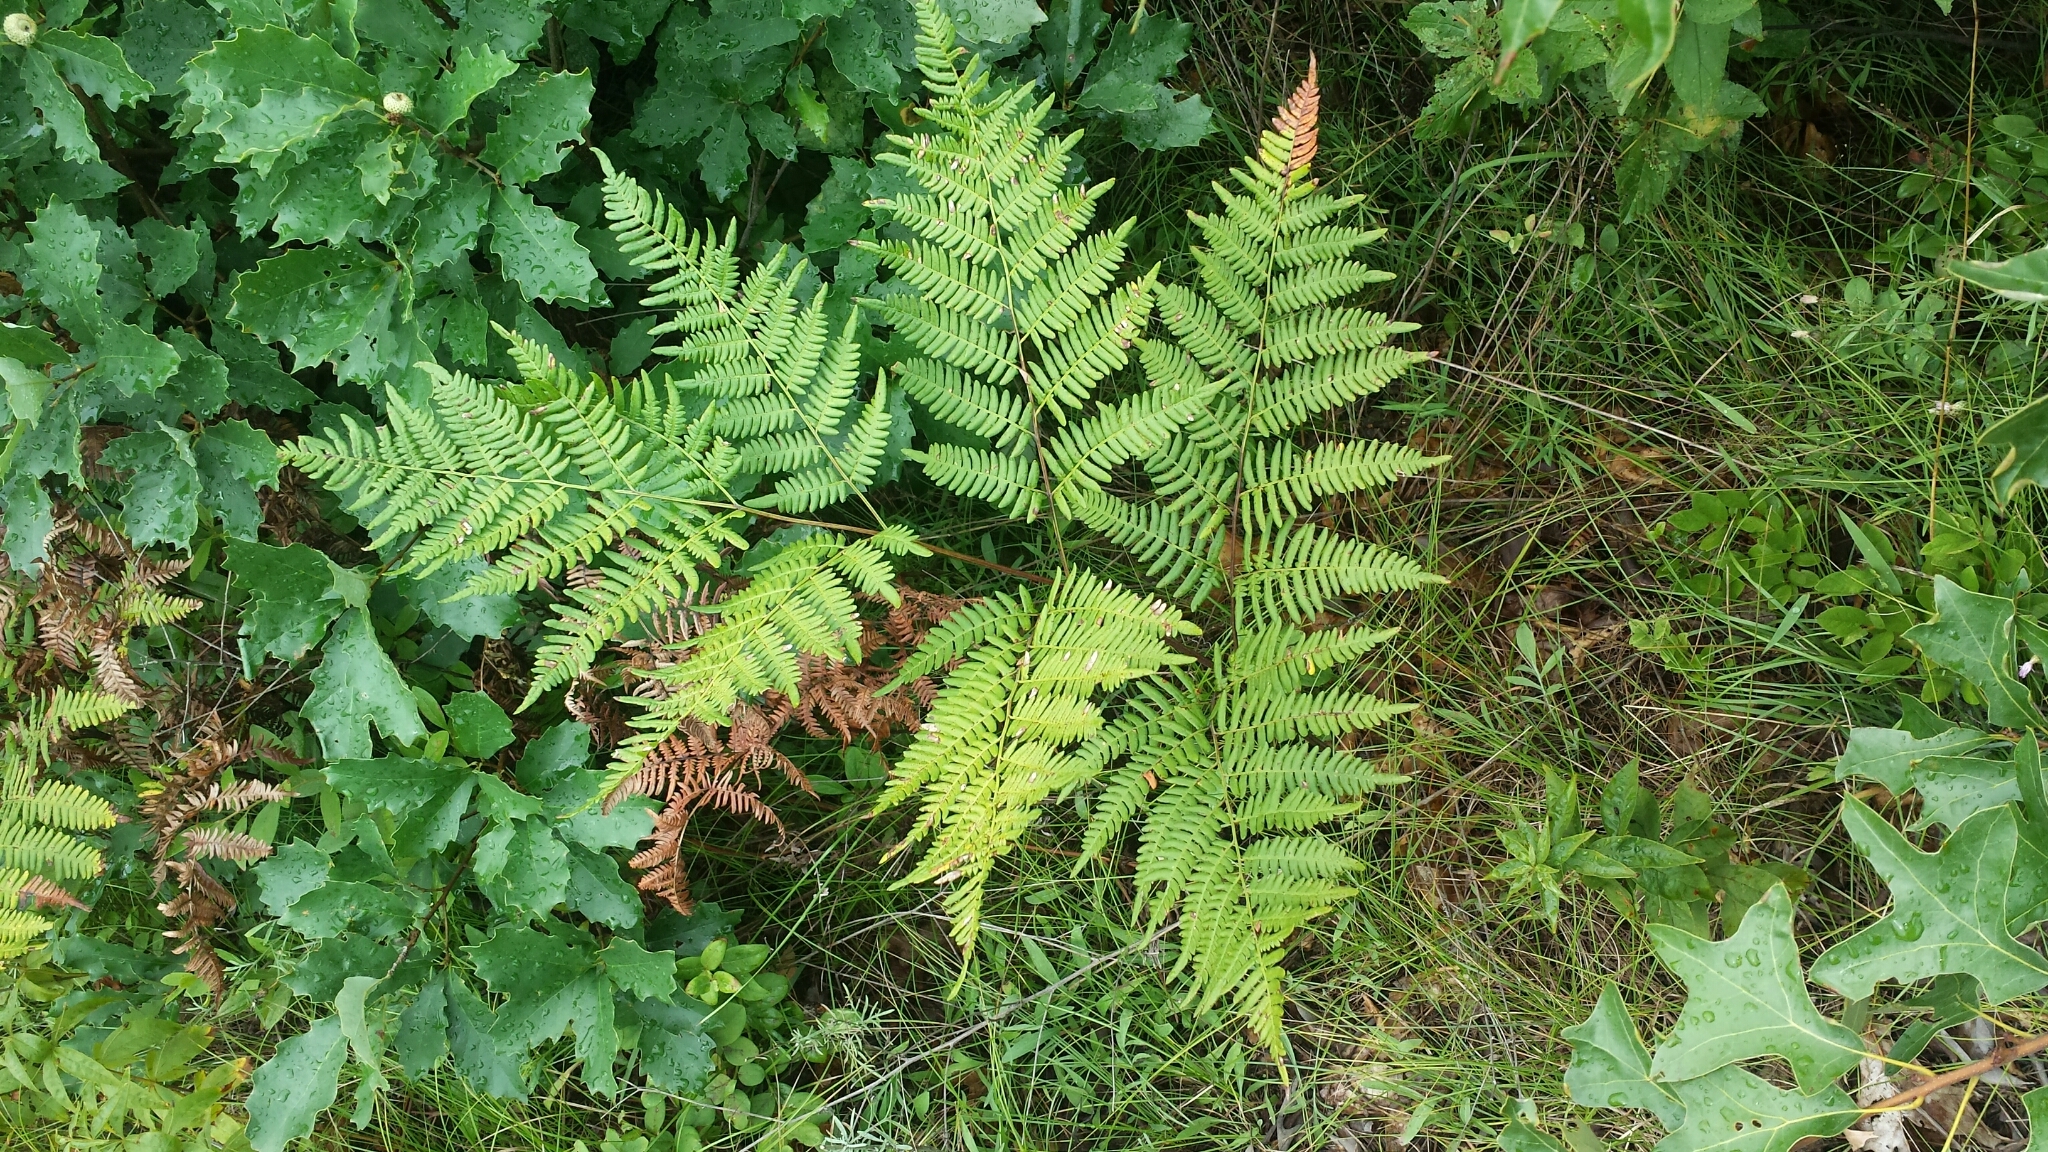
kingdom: Plantae
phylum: Tracheophyta
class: Polypodiopsida
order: Polypodiales
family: Dennstaedtiaceae
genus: Pteridium
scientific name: Pteridium aquilinum
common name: Bracken
